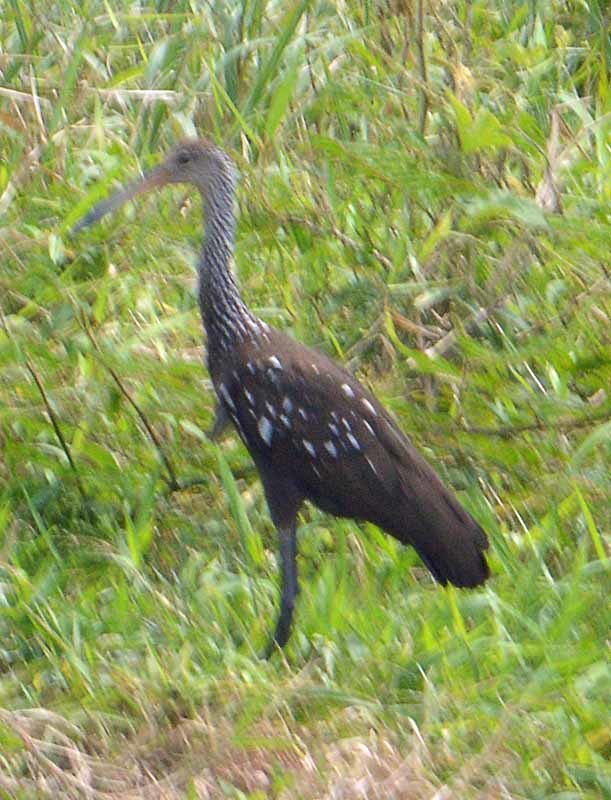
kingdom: Animalia
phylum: Chordata
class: Aves
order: Gruiformes
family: Aramidae
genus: Aramus
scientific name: Aramus guarauna
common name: Limpkin
